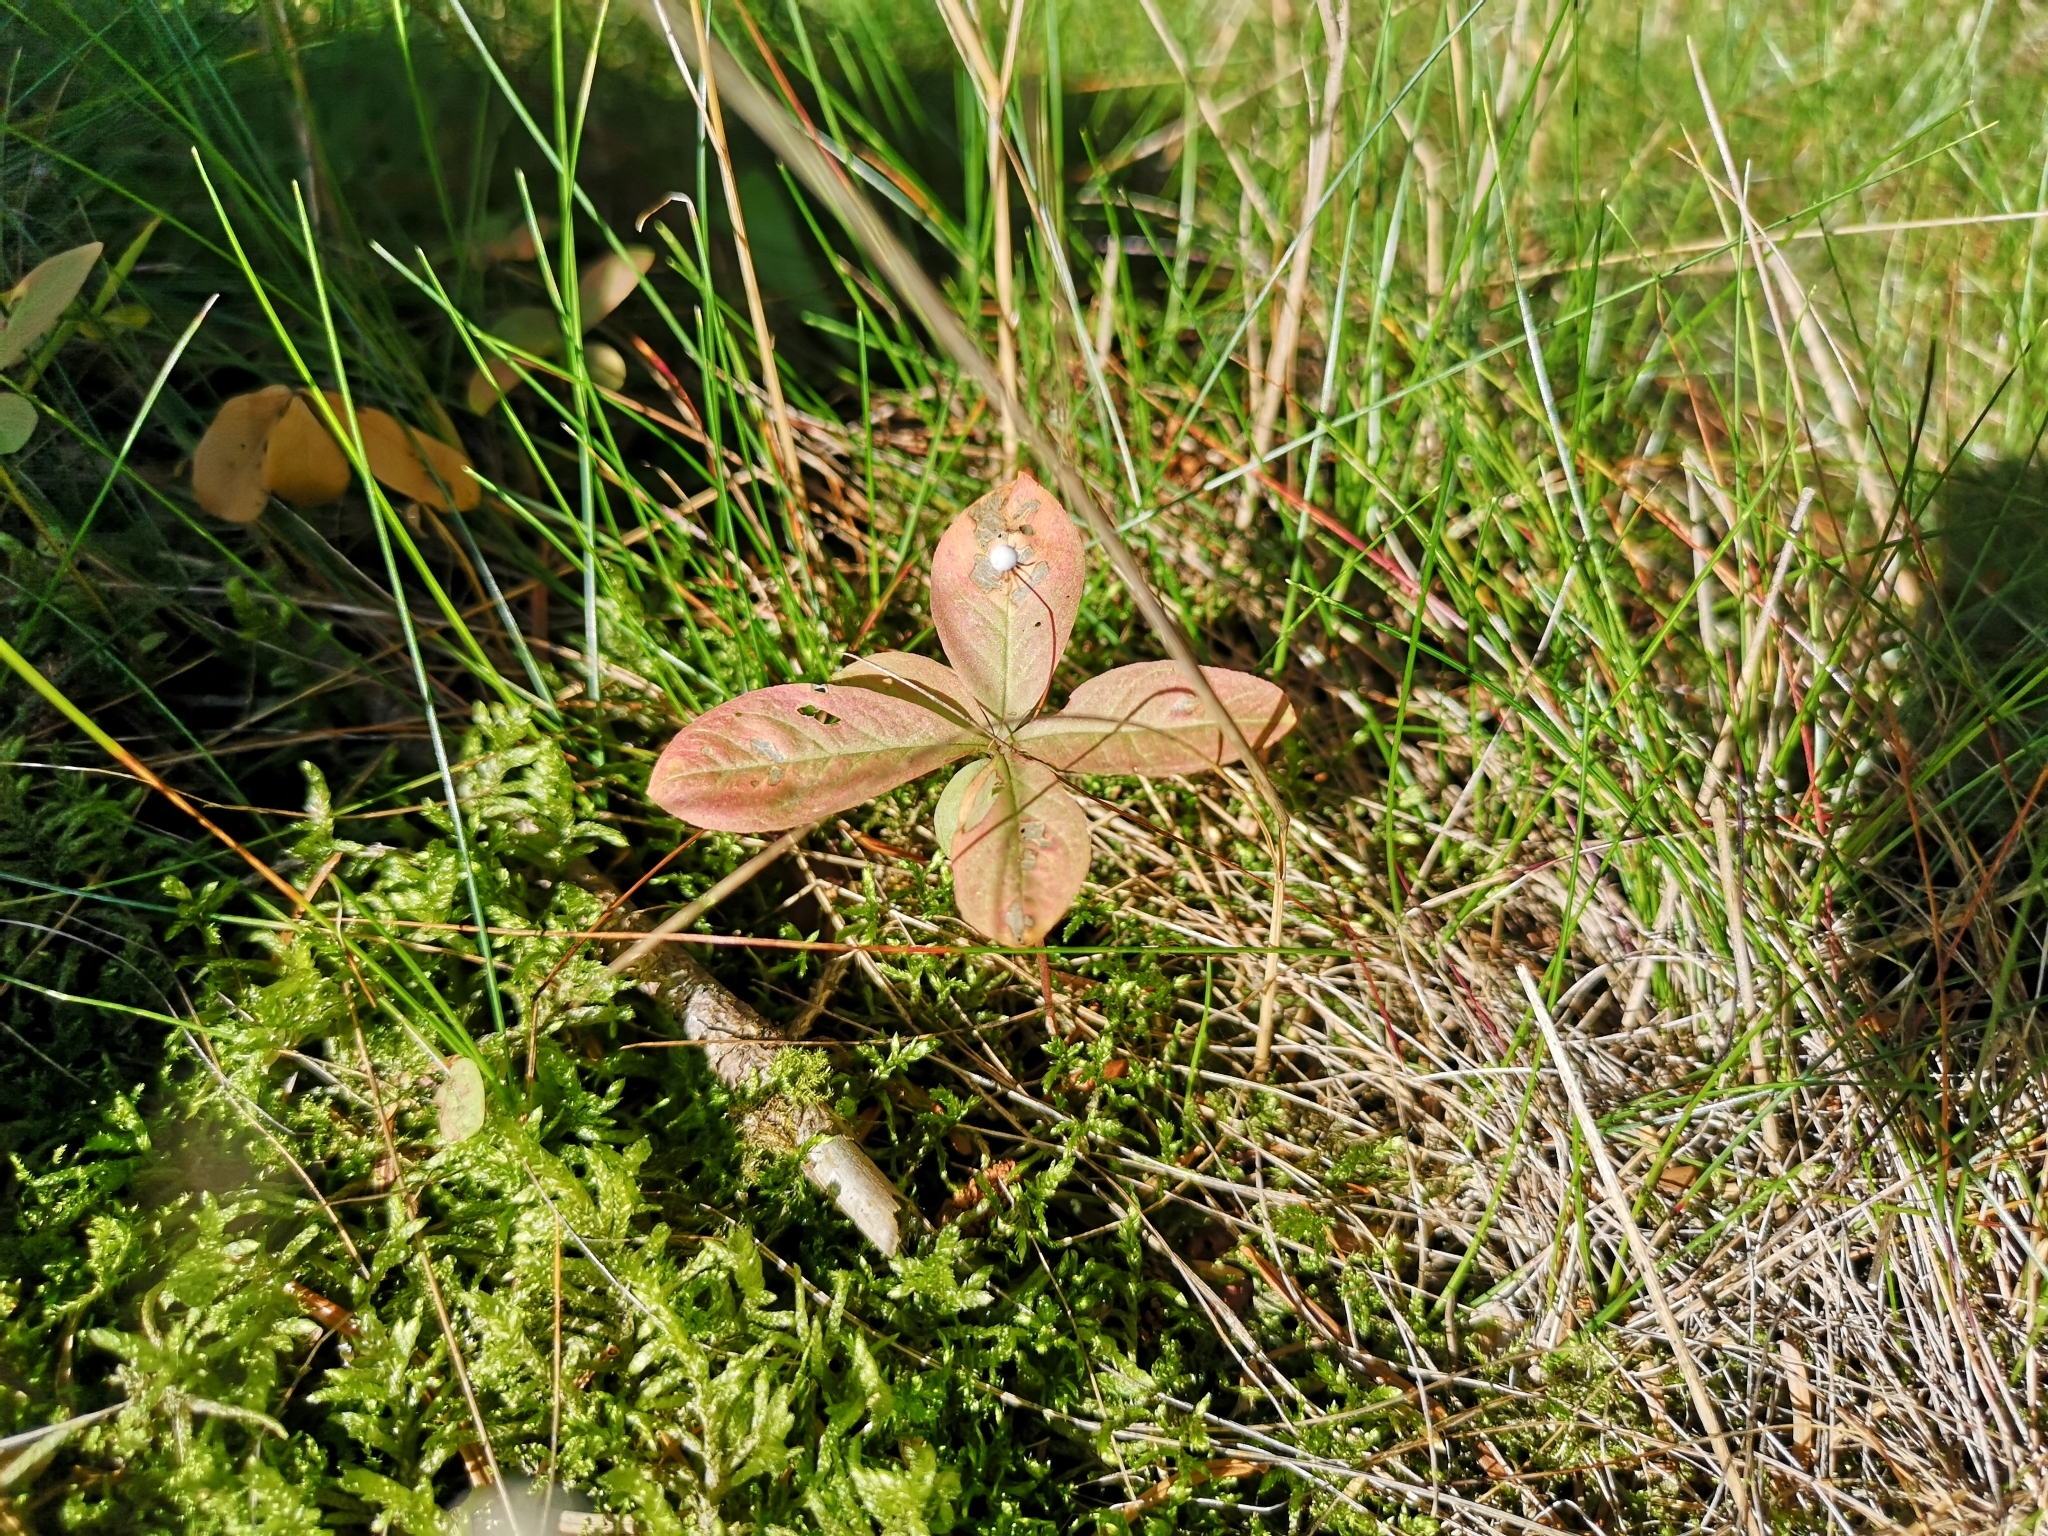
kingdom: Plantae
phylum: Tracheophyta
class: Magnoliopsida
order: Ericales
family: Primulaceae
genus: Lysimachia
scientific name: Lysimachia europaea
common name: Arctic starflower
